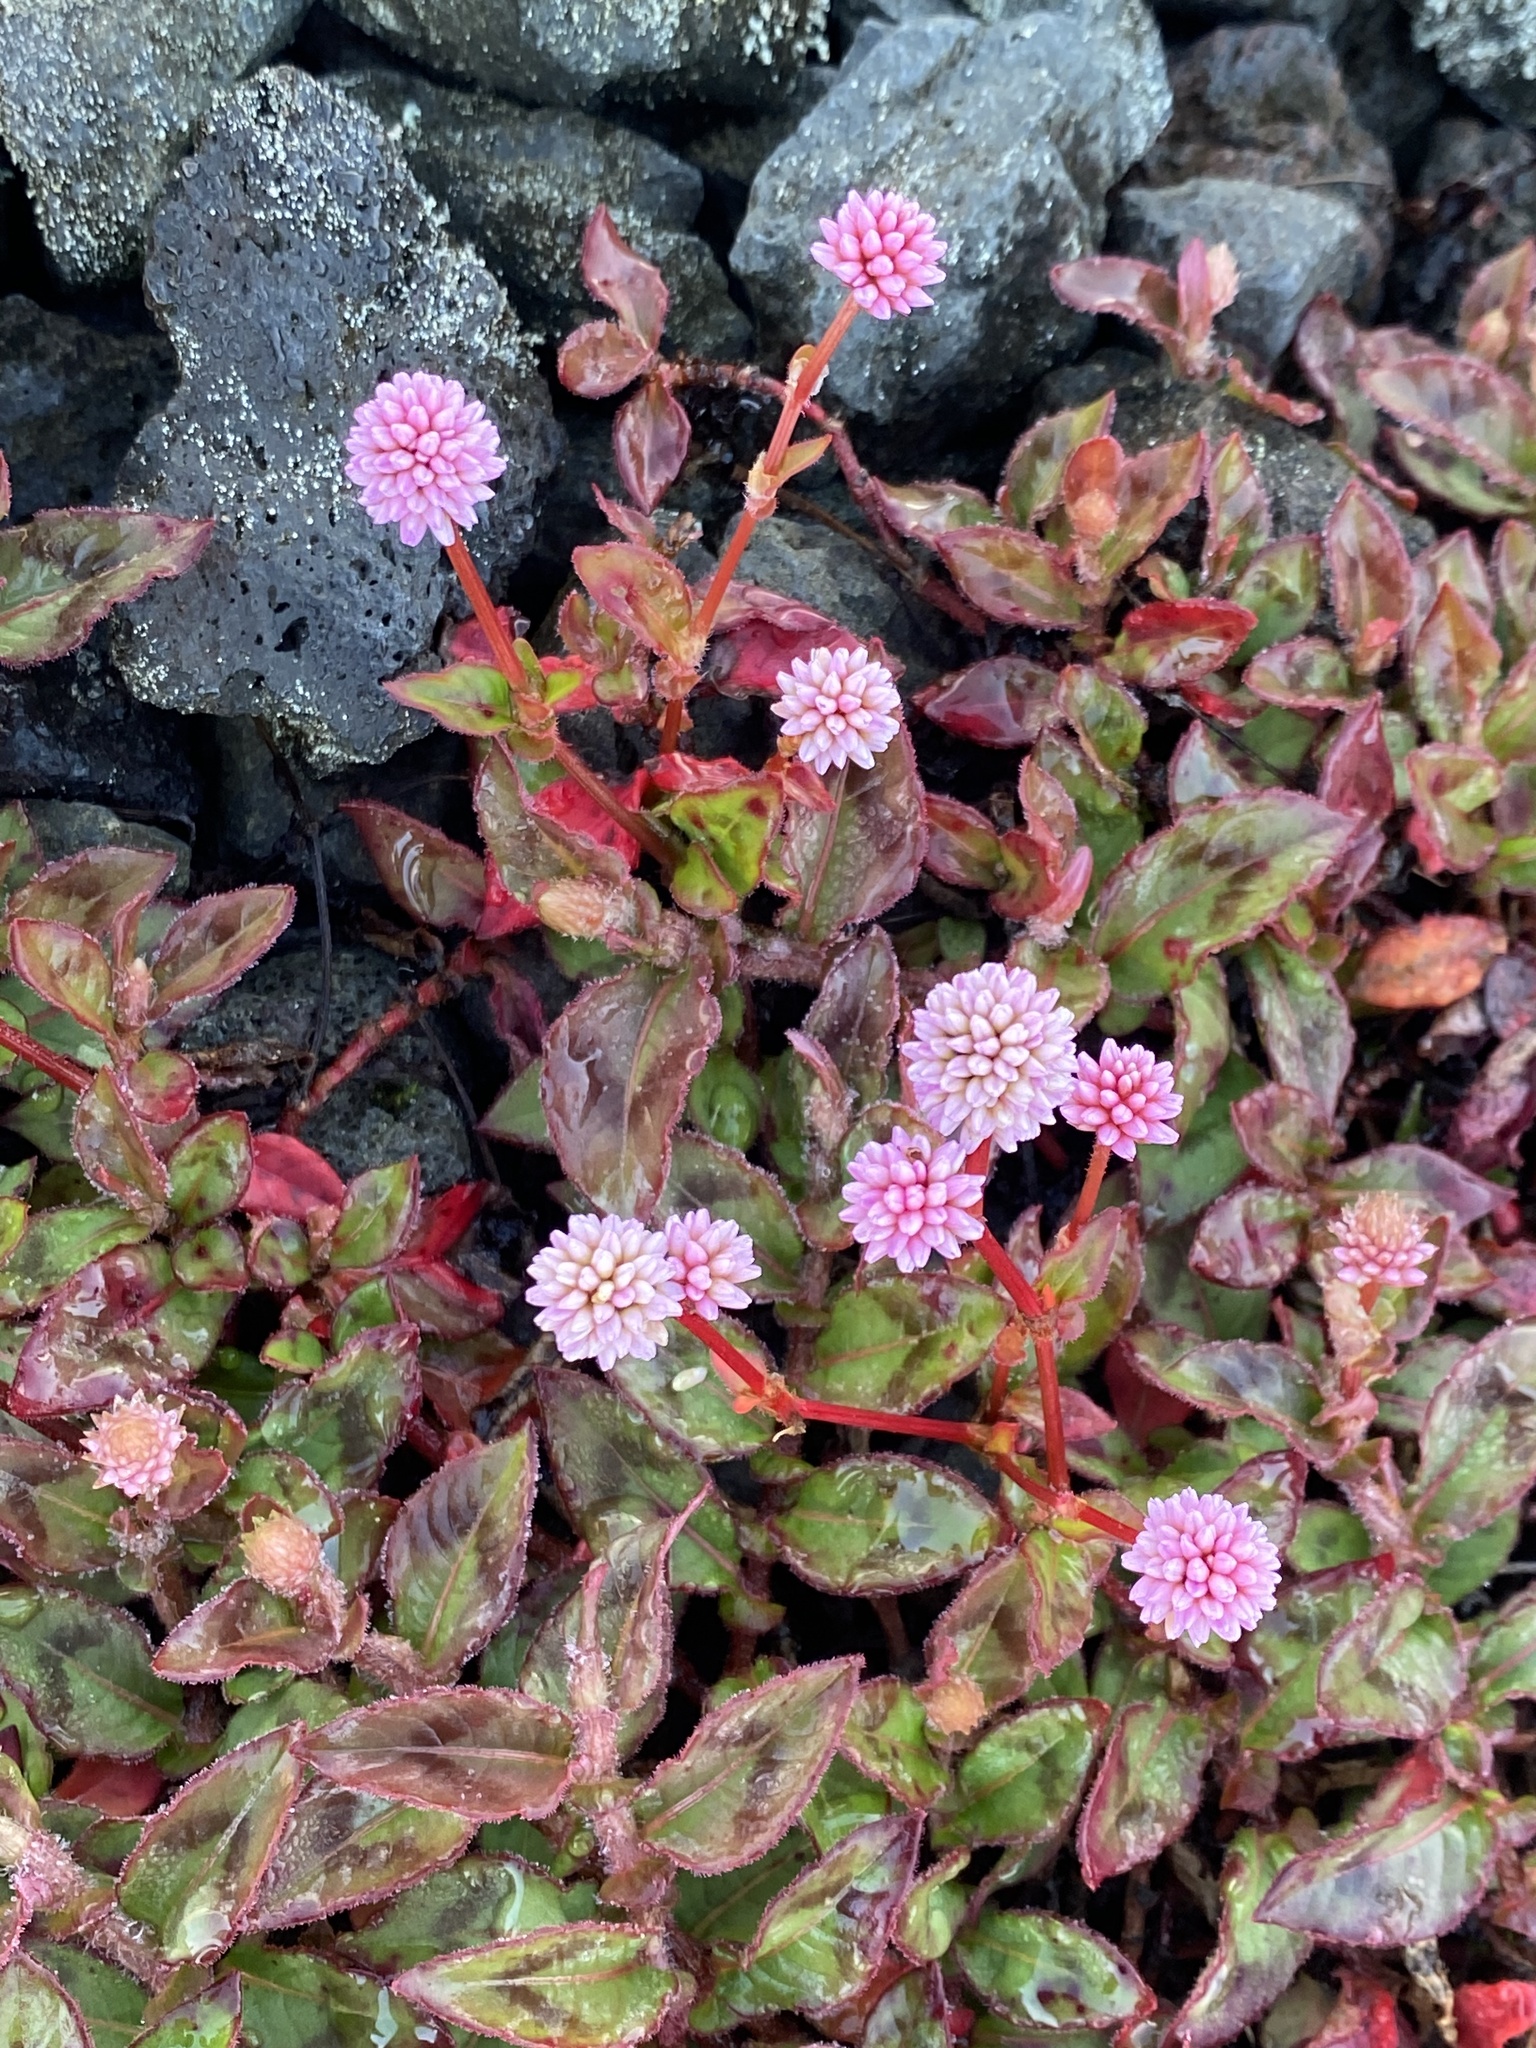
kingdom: Plantae
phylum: Tracheophyta
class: Magnoliopsida
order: Caryophyllales
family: Polygonaceae
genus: Persicaria
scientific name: Persicaria capitata
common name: Pinkhead smartweed
